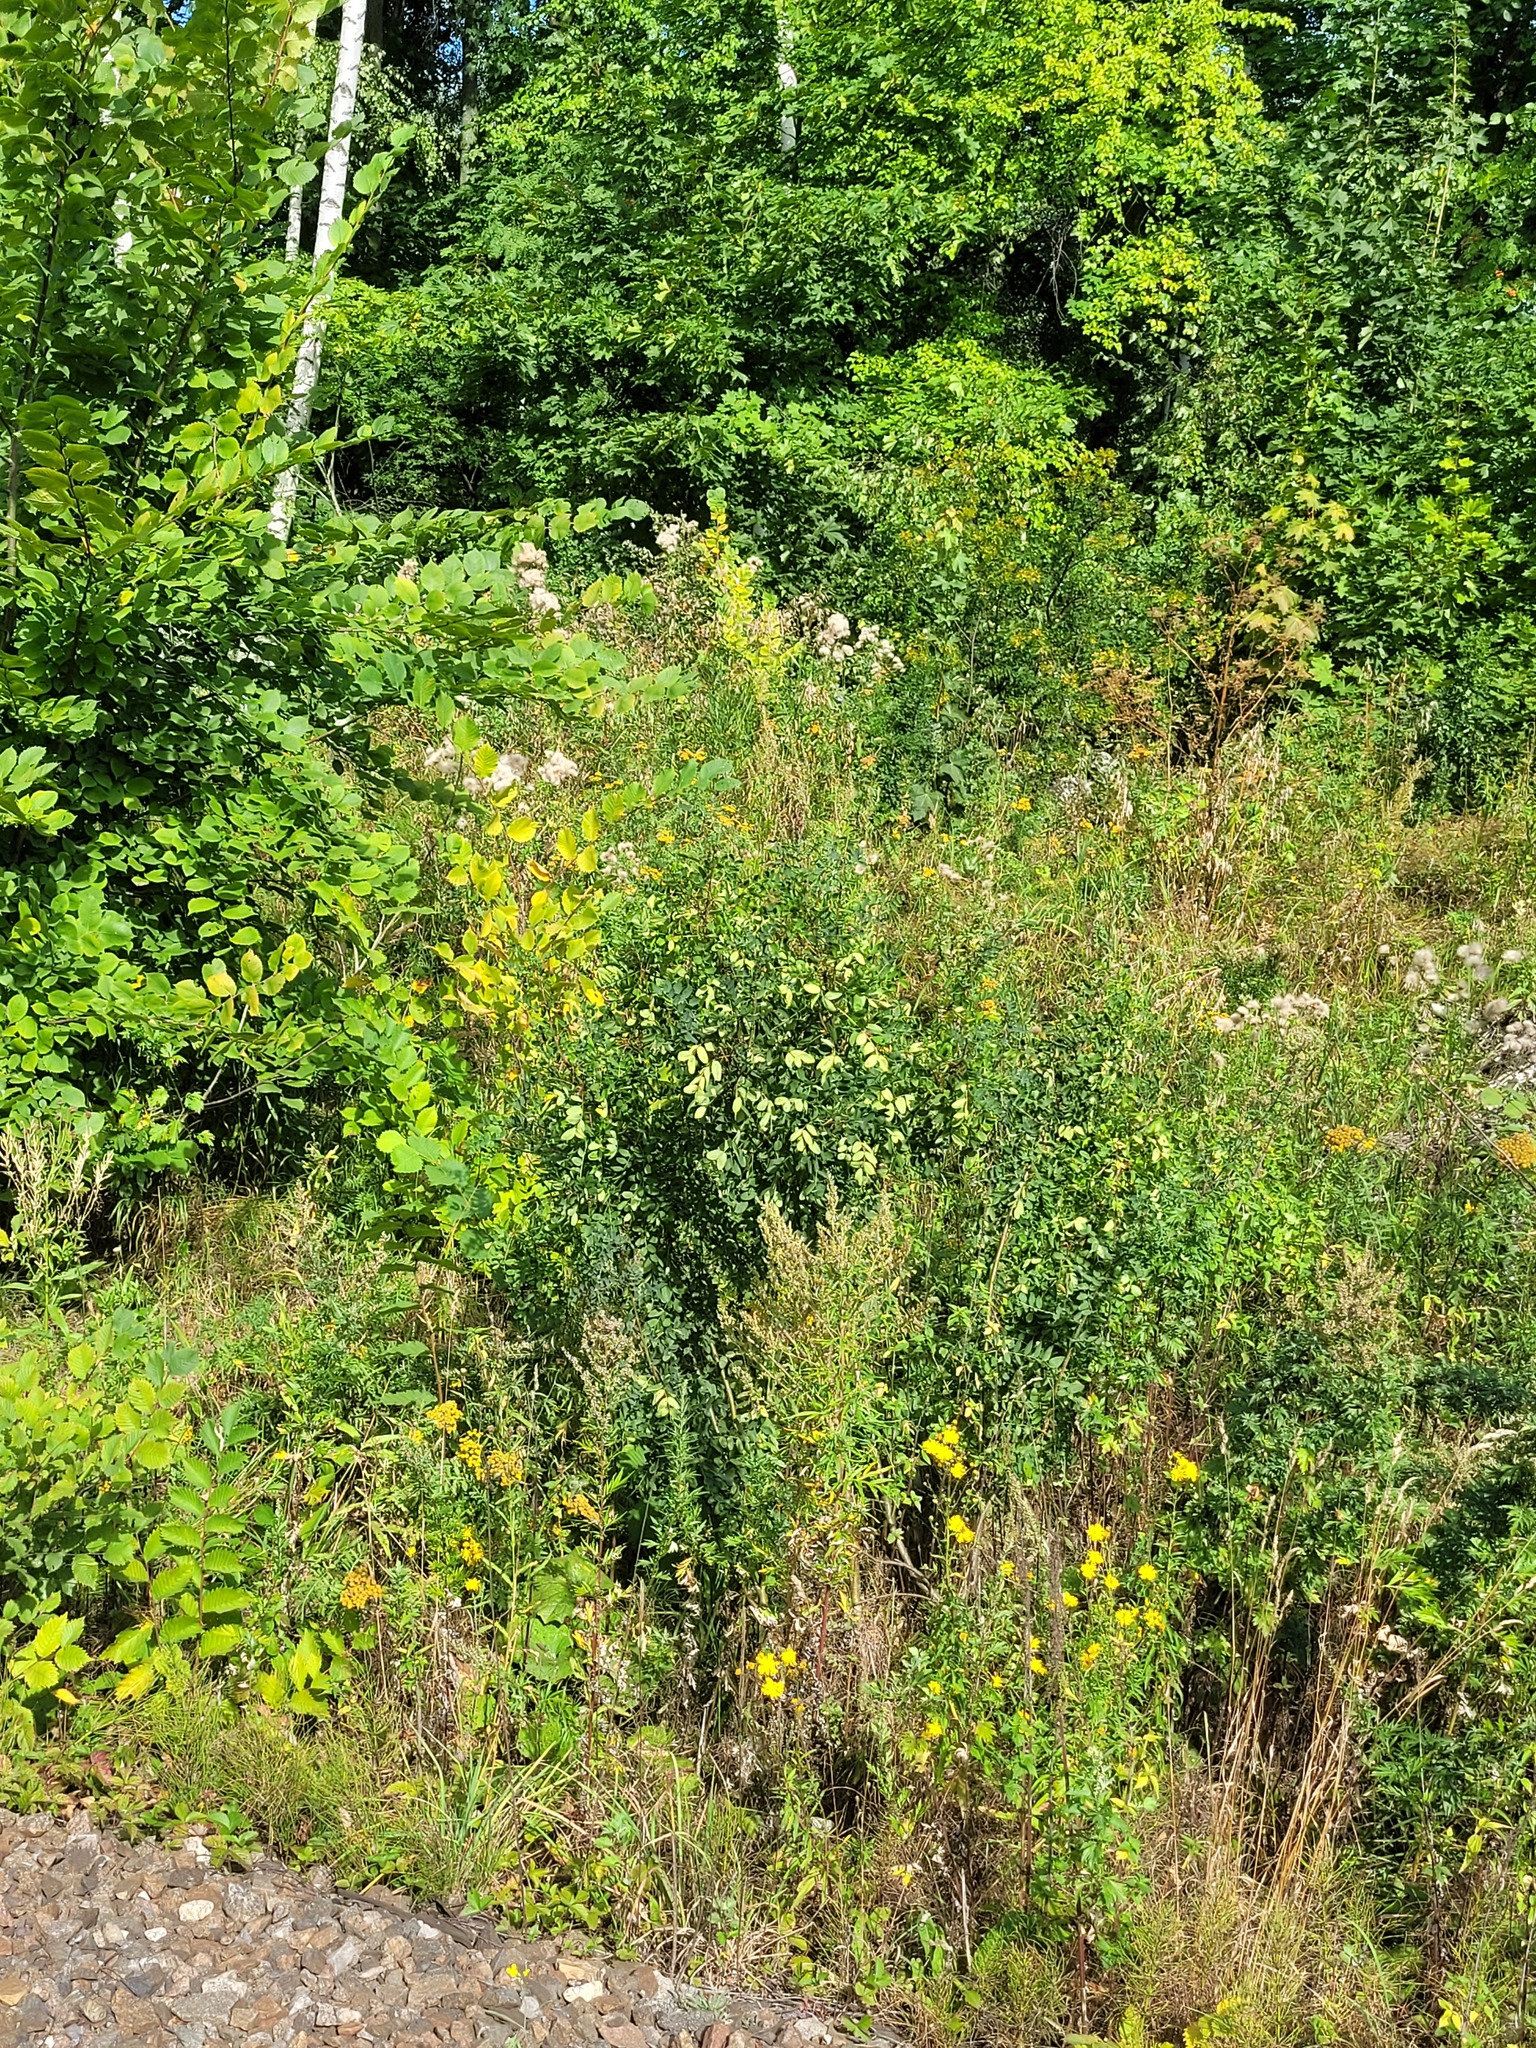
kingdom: Plantae
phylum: Tracheophyta
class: Magnoliopsida
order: Fabales
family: Fabaceae
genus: Caragana
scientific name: Caragana arborescens
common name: Siberian peashrub
